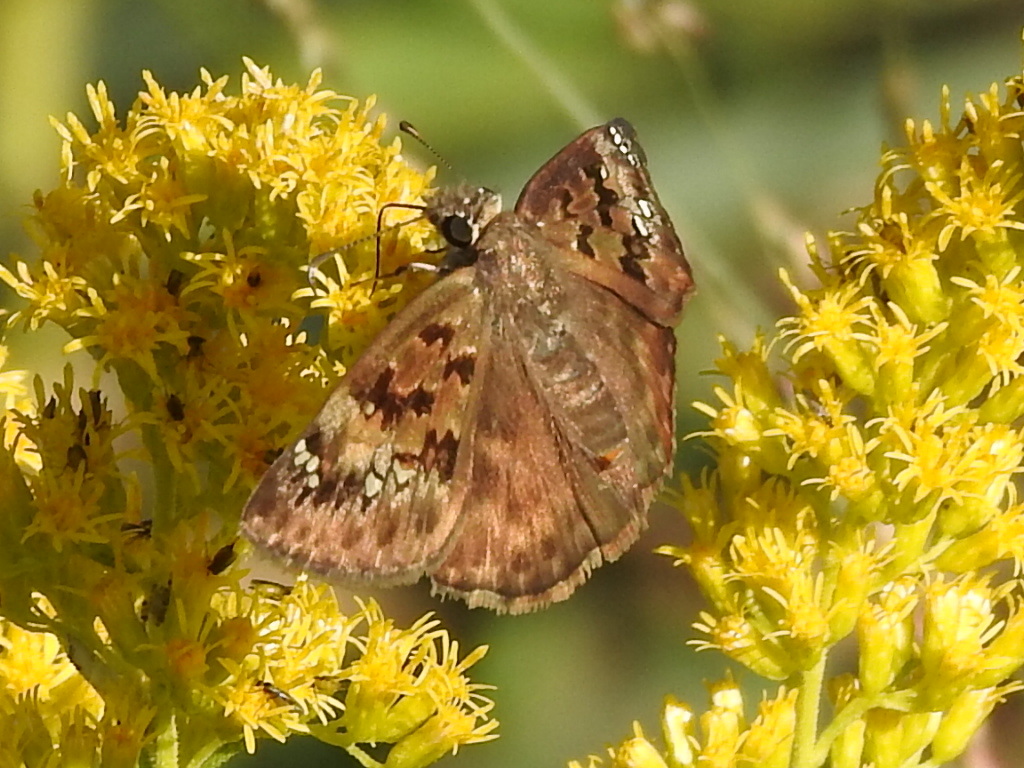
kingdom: Animalia
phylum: Arthropoda
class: Insecta
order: Lepidoptera
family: Hesperiidae
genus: Erynnis
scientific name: Erynnis horatius
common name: Horace's duskywing
